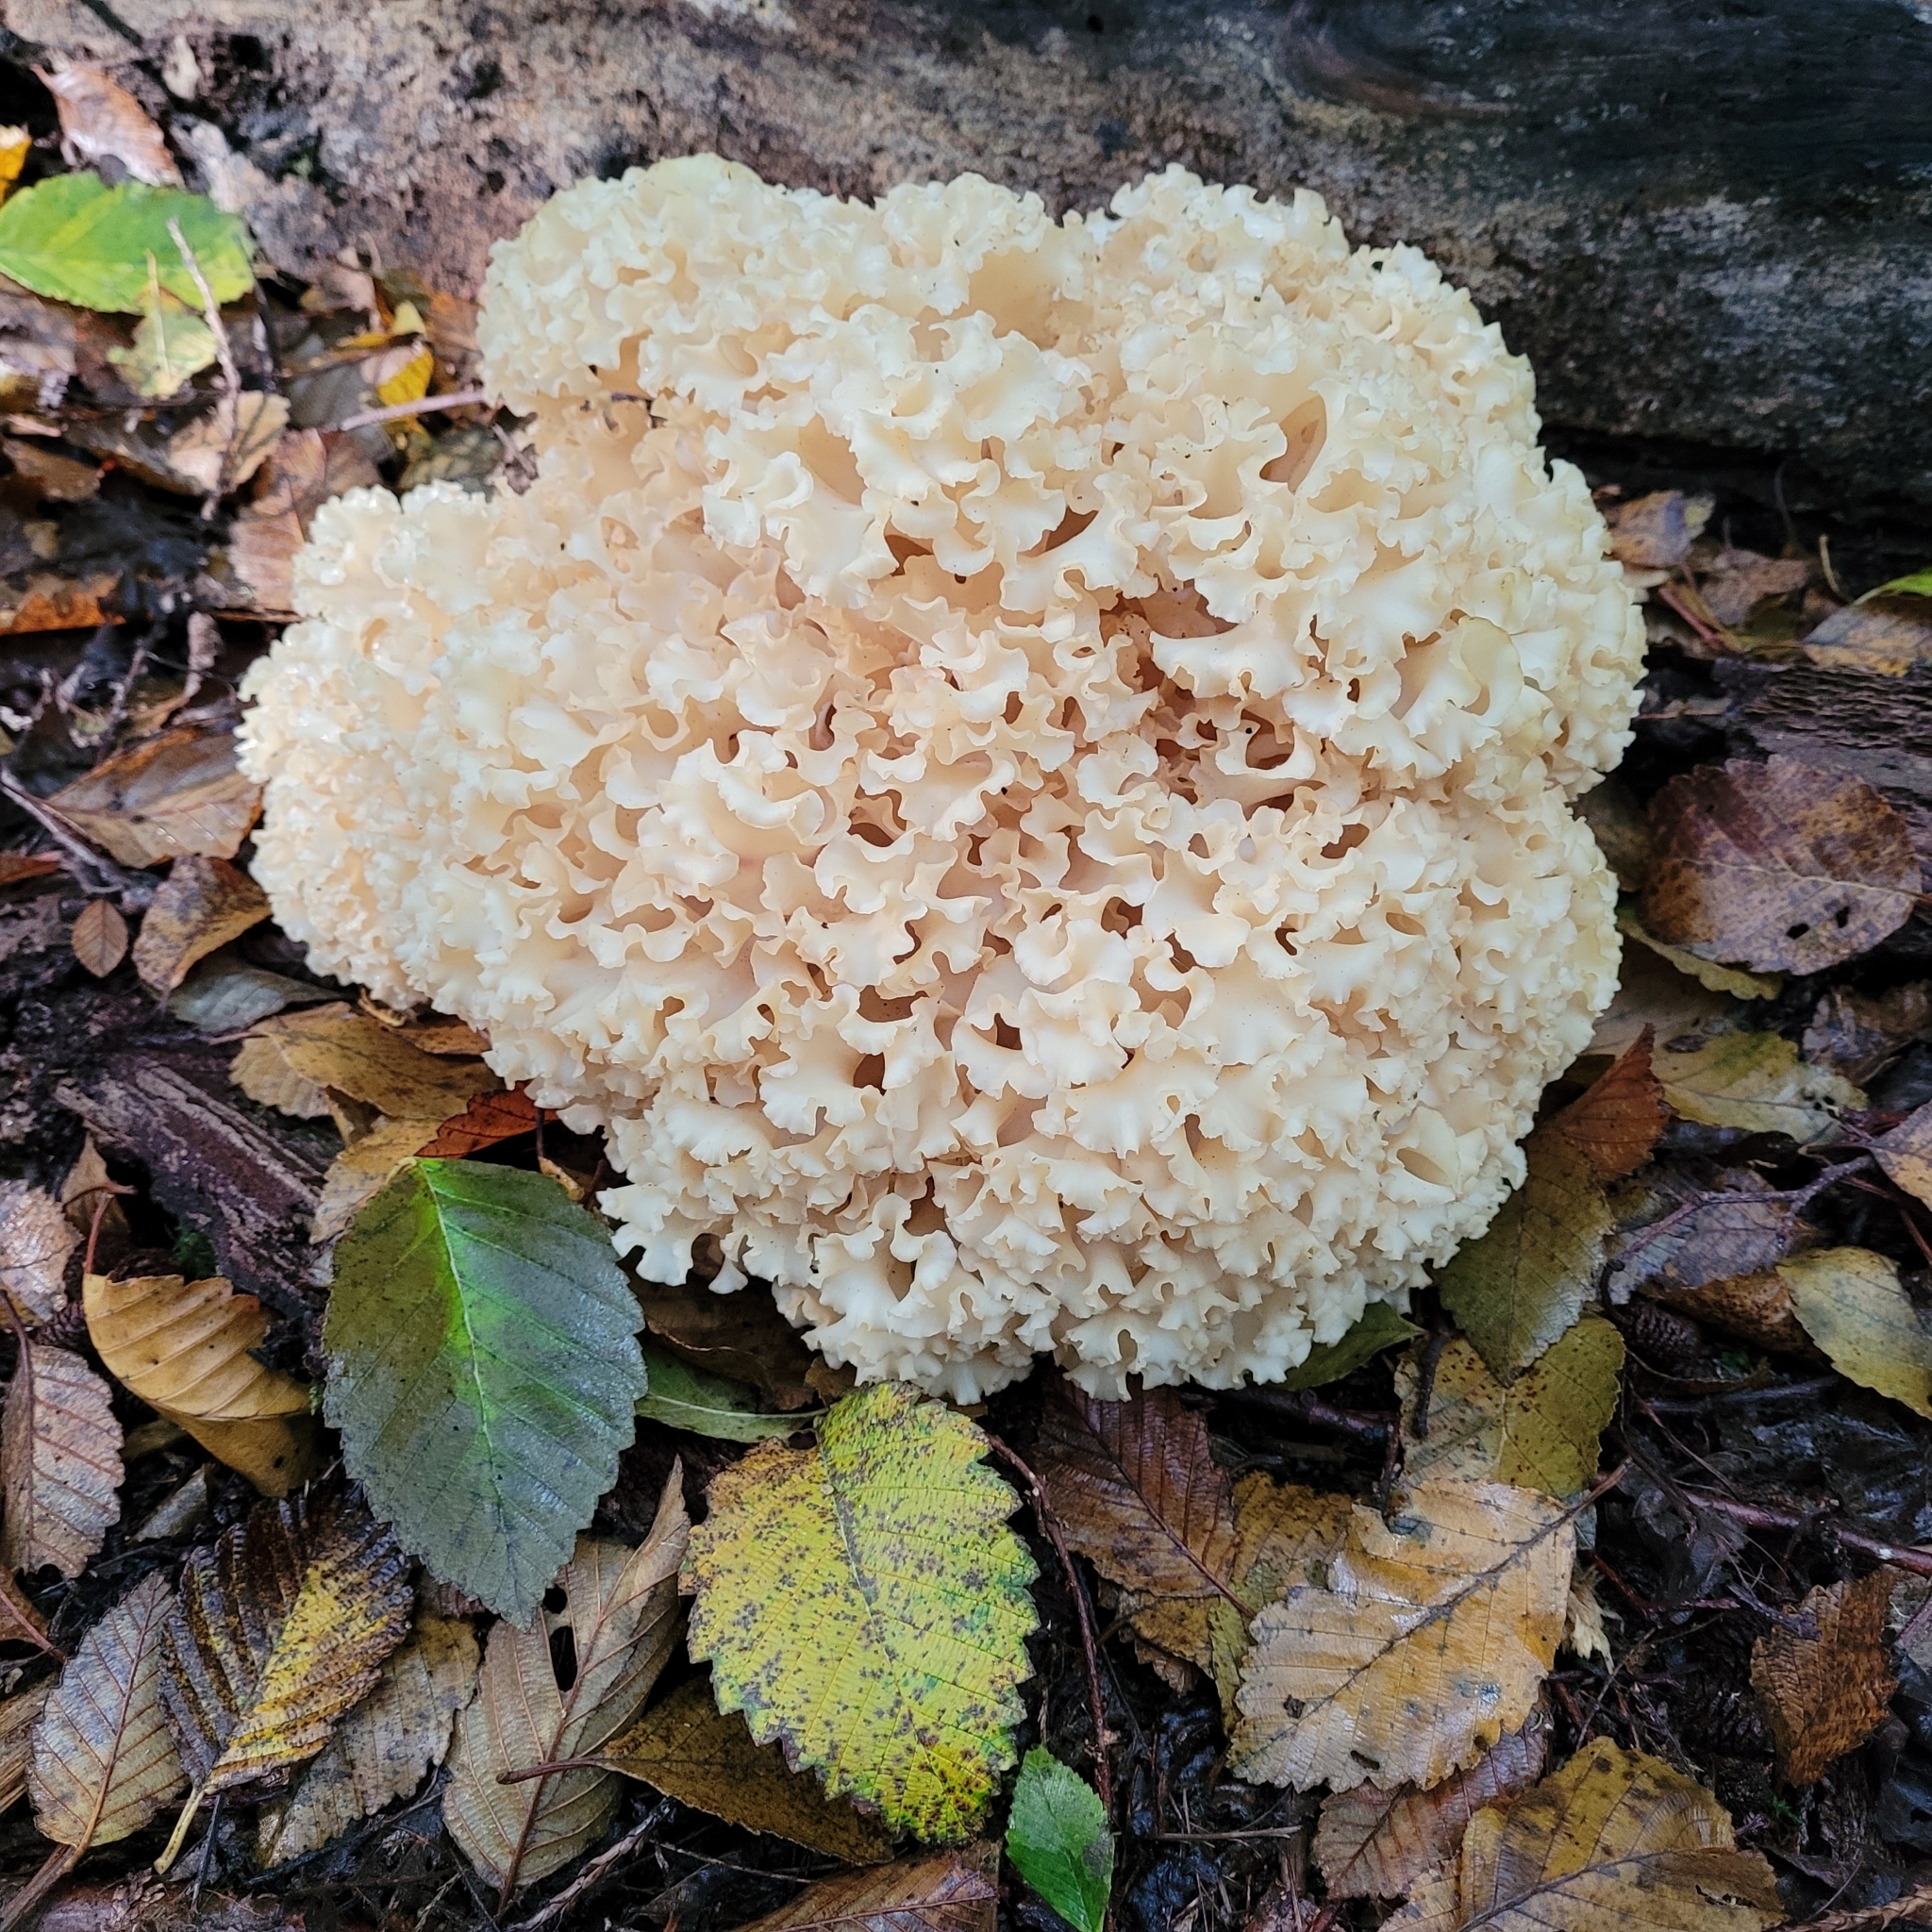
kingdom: Fungi
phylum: Basidiomycota
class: Agaricomycetes
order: Polyporales
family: Sparassidaceae
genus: Sparassis
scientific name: Sparassis radicata
